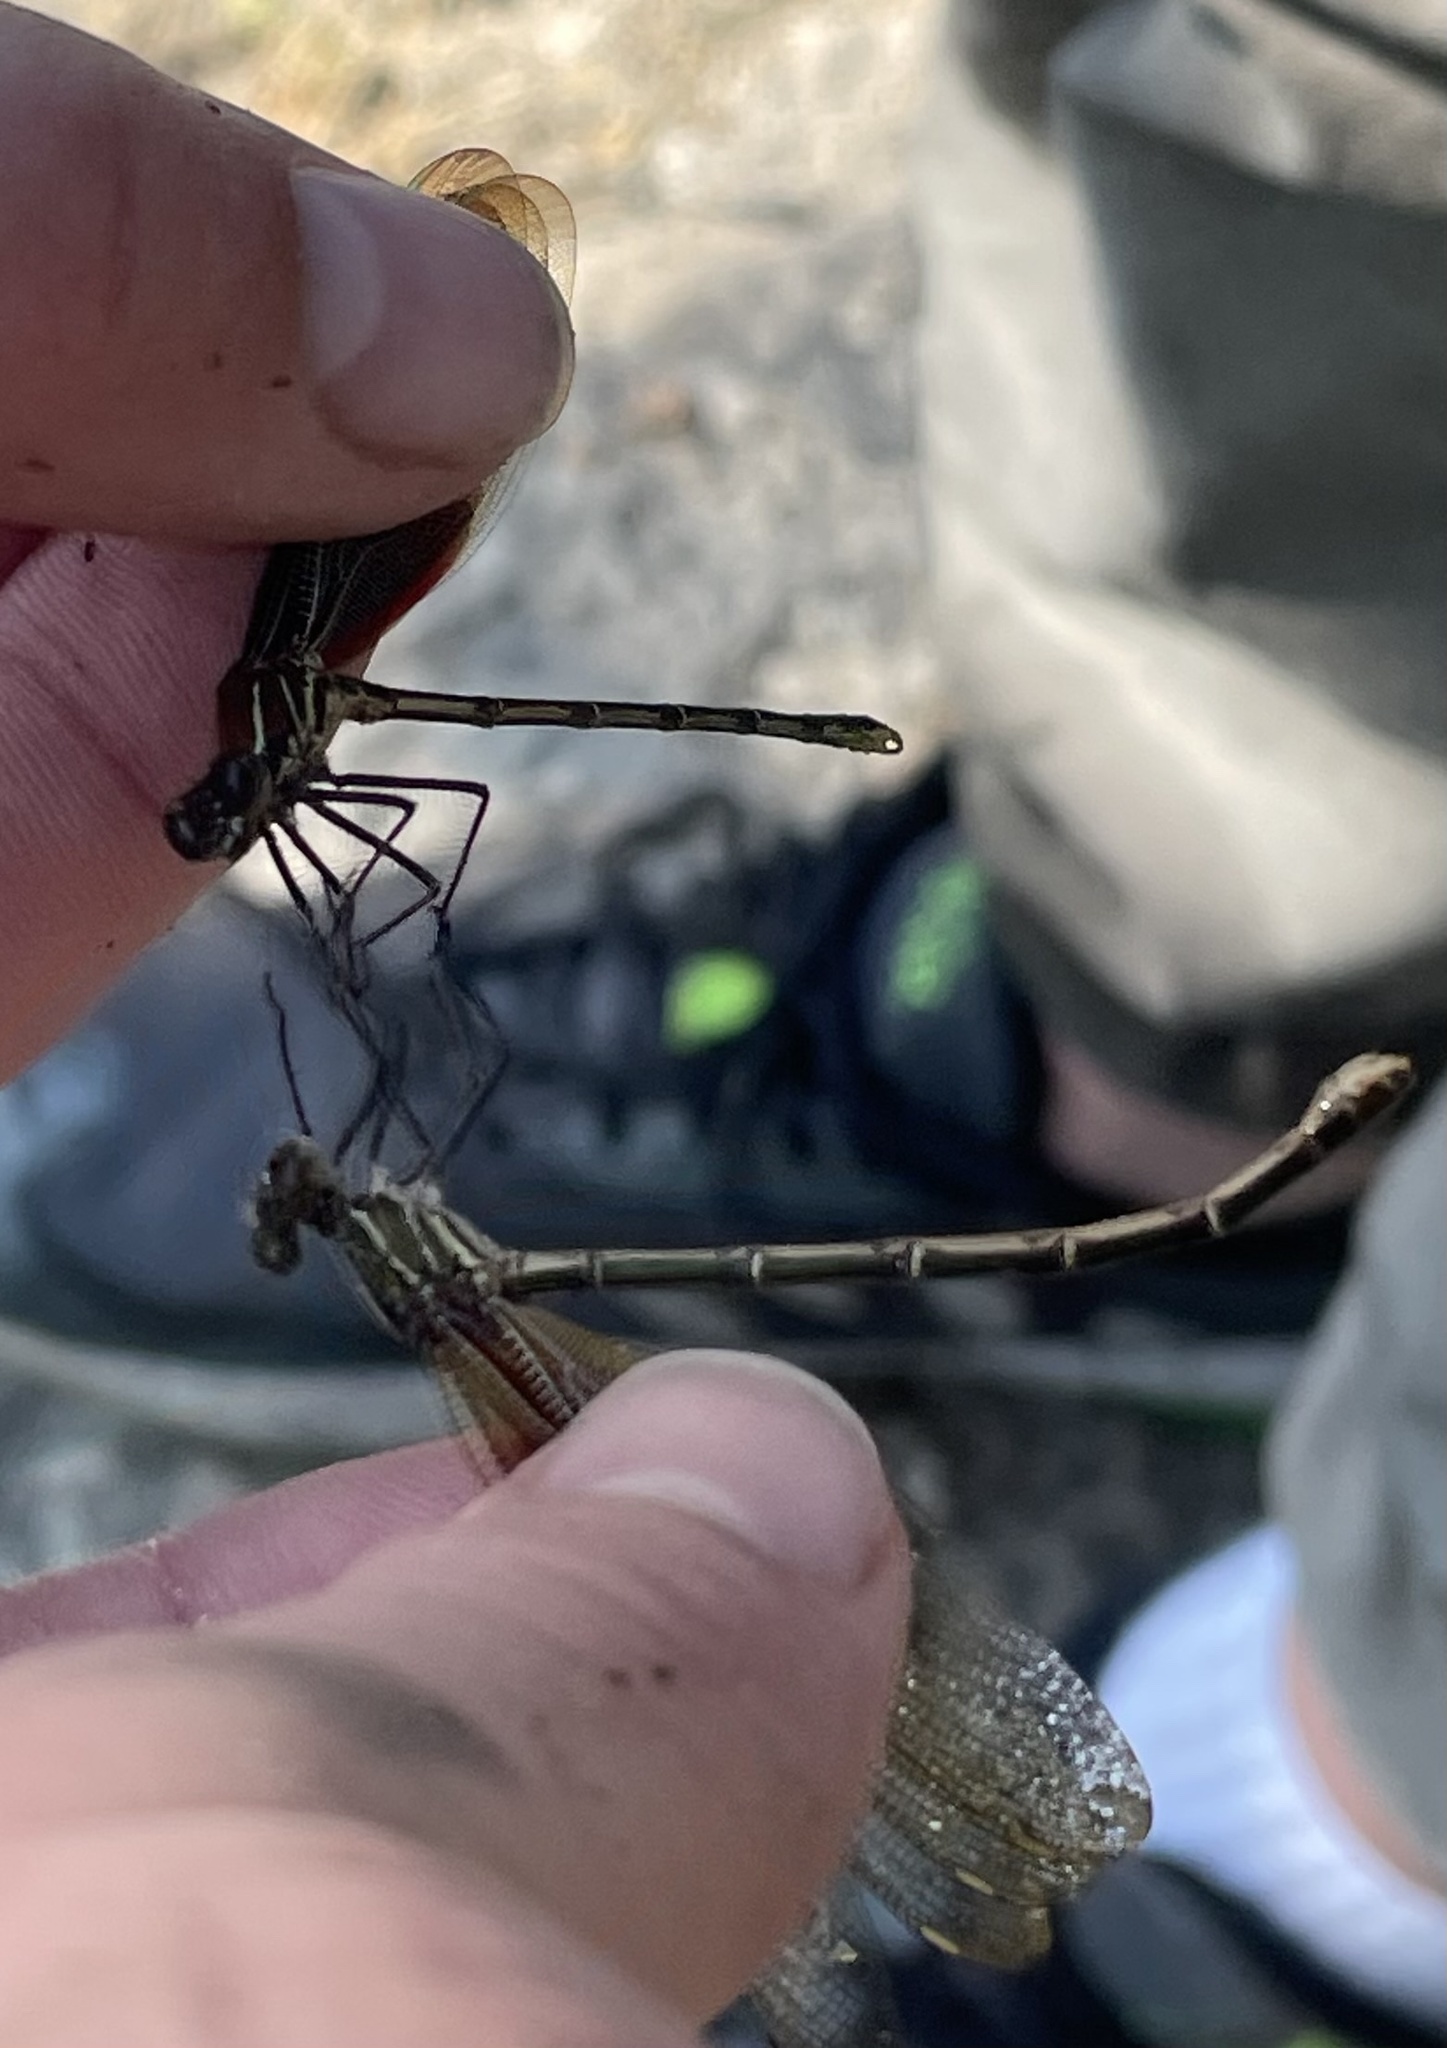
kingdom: Animalia
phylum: Arthropoda
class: Insecta
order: Odonata
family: Calopterygidae
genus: Hetaerina
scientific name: Hetaerina americana
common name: American rubyspot
